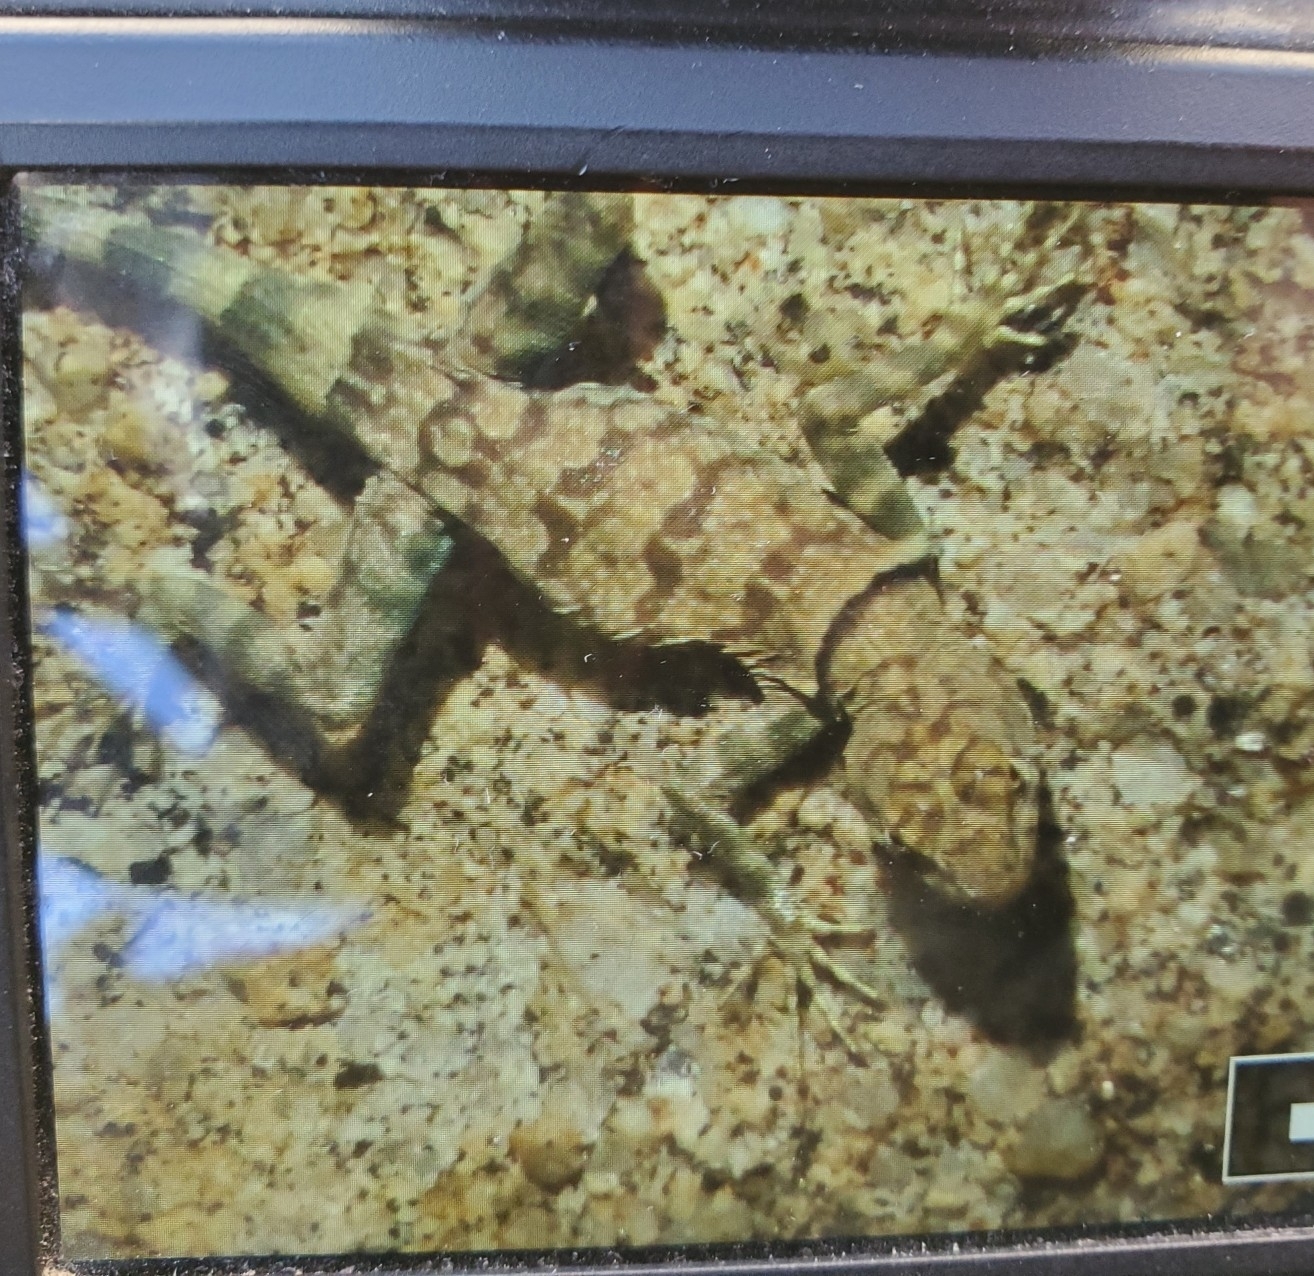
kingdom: Animalia
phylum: Chordata
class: Squamata
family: Phrynosomatidae
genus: Petrosaurus
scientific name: Petrosaurus mearnsi
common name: Banded rock lizard
